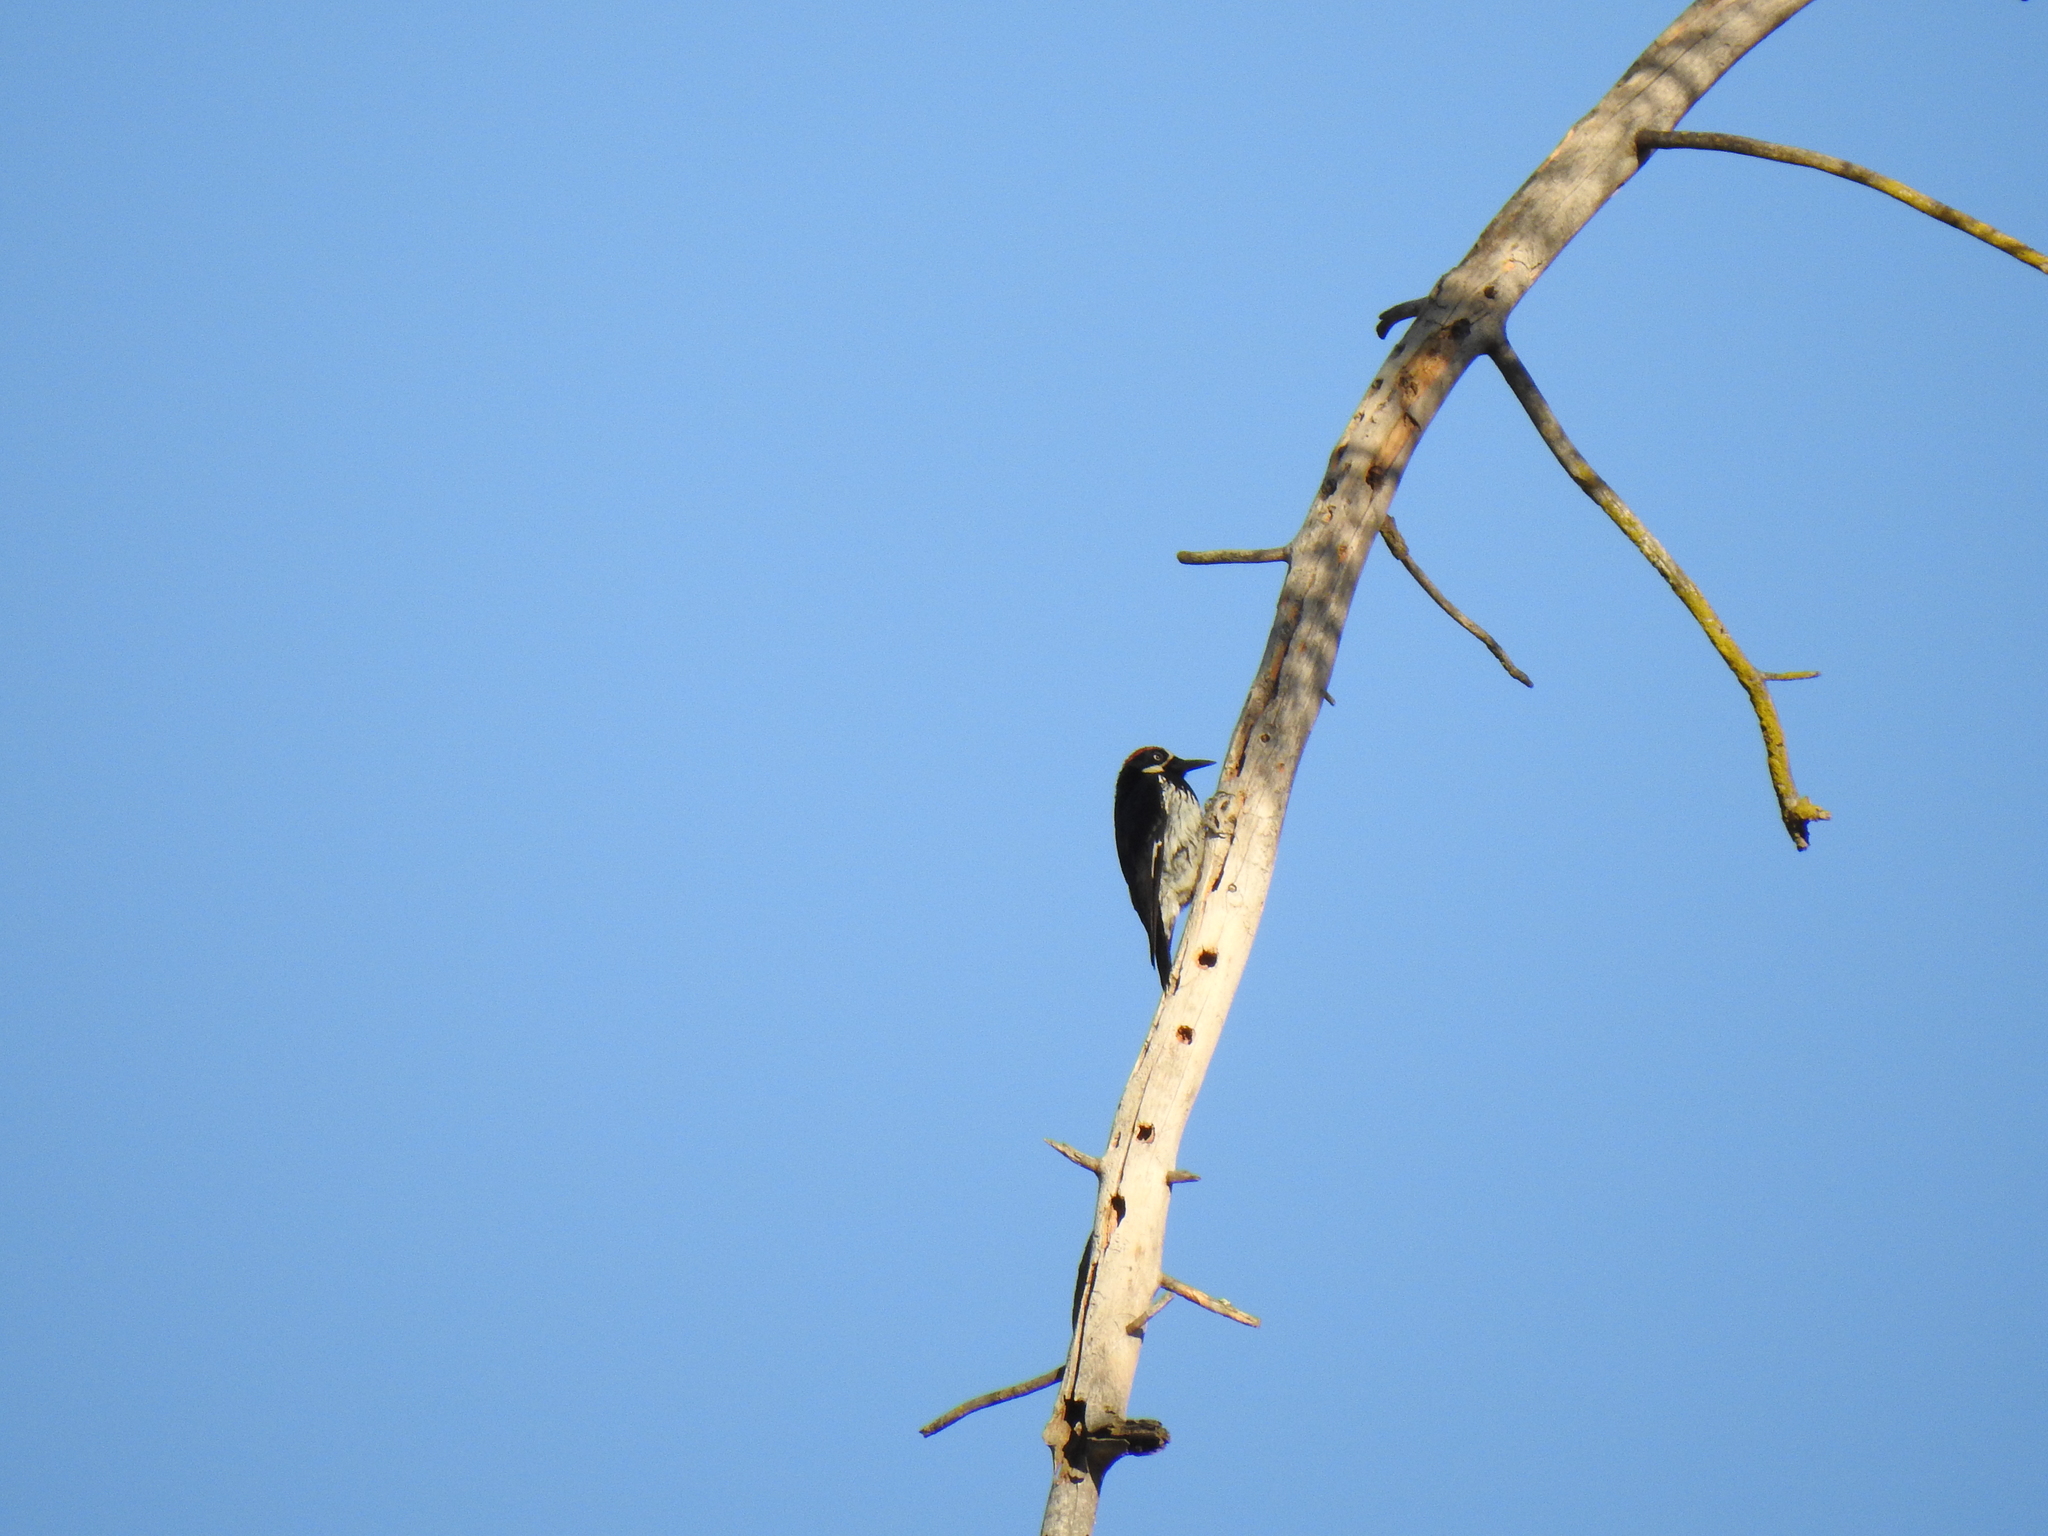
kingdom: Animalia
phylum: Chordata
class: Aves
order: Piciformes
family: Picidae
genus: Melanerpes
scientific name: Melanerpes formicivorus
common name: Acorn woodpecker
